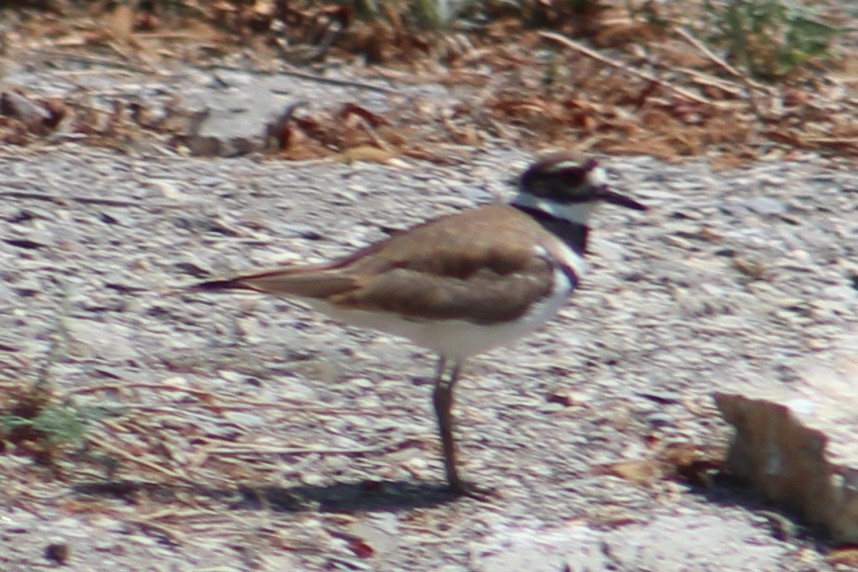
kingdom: Animalia
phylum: Chordata
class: Aves
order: Charadriiformes
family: Charadriidae
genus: Charadrius
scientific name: Charadrius vociferus
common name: Killdeer
